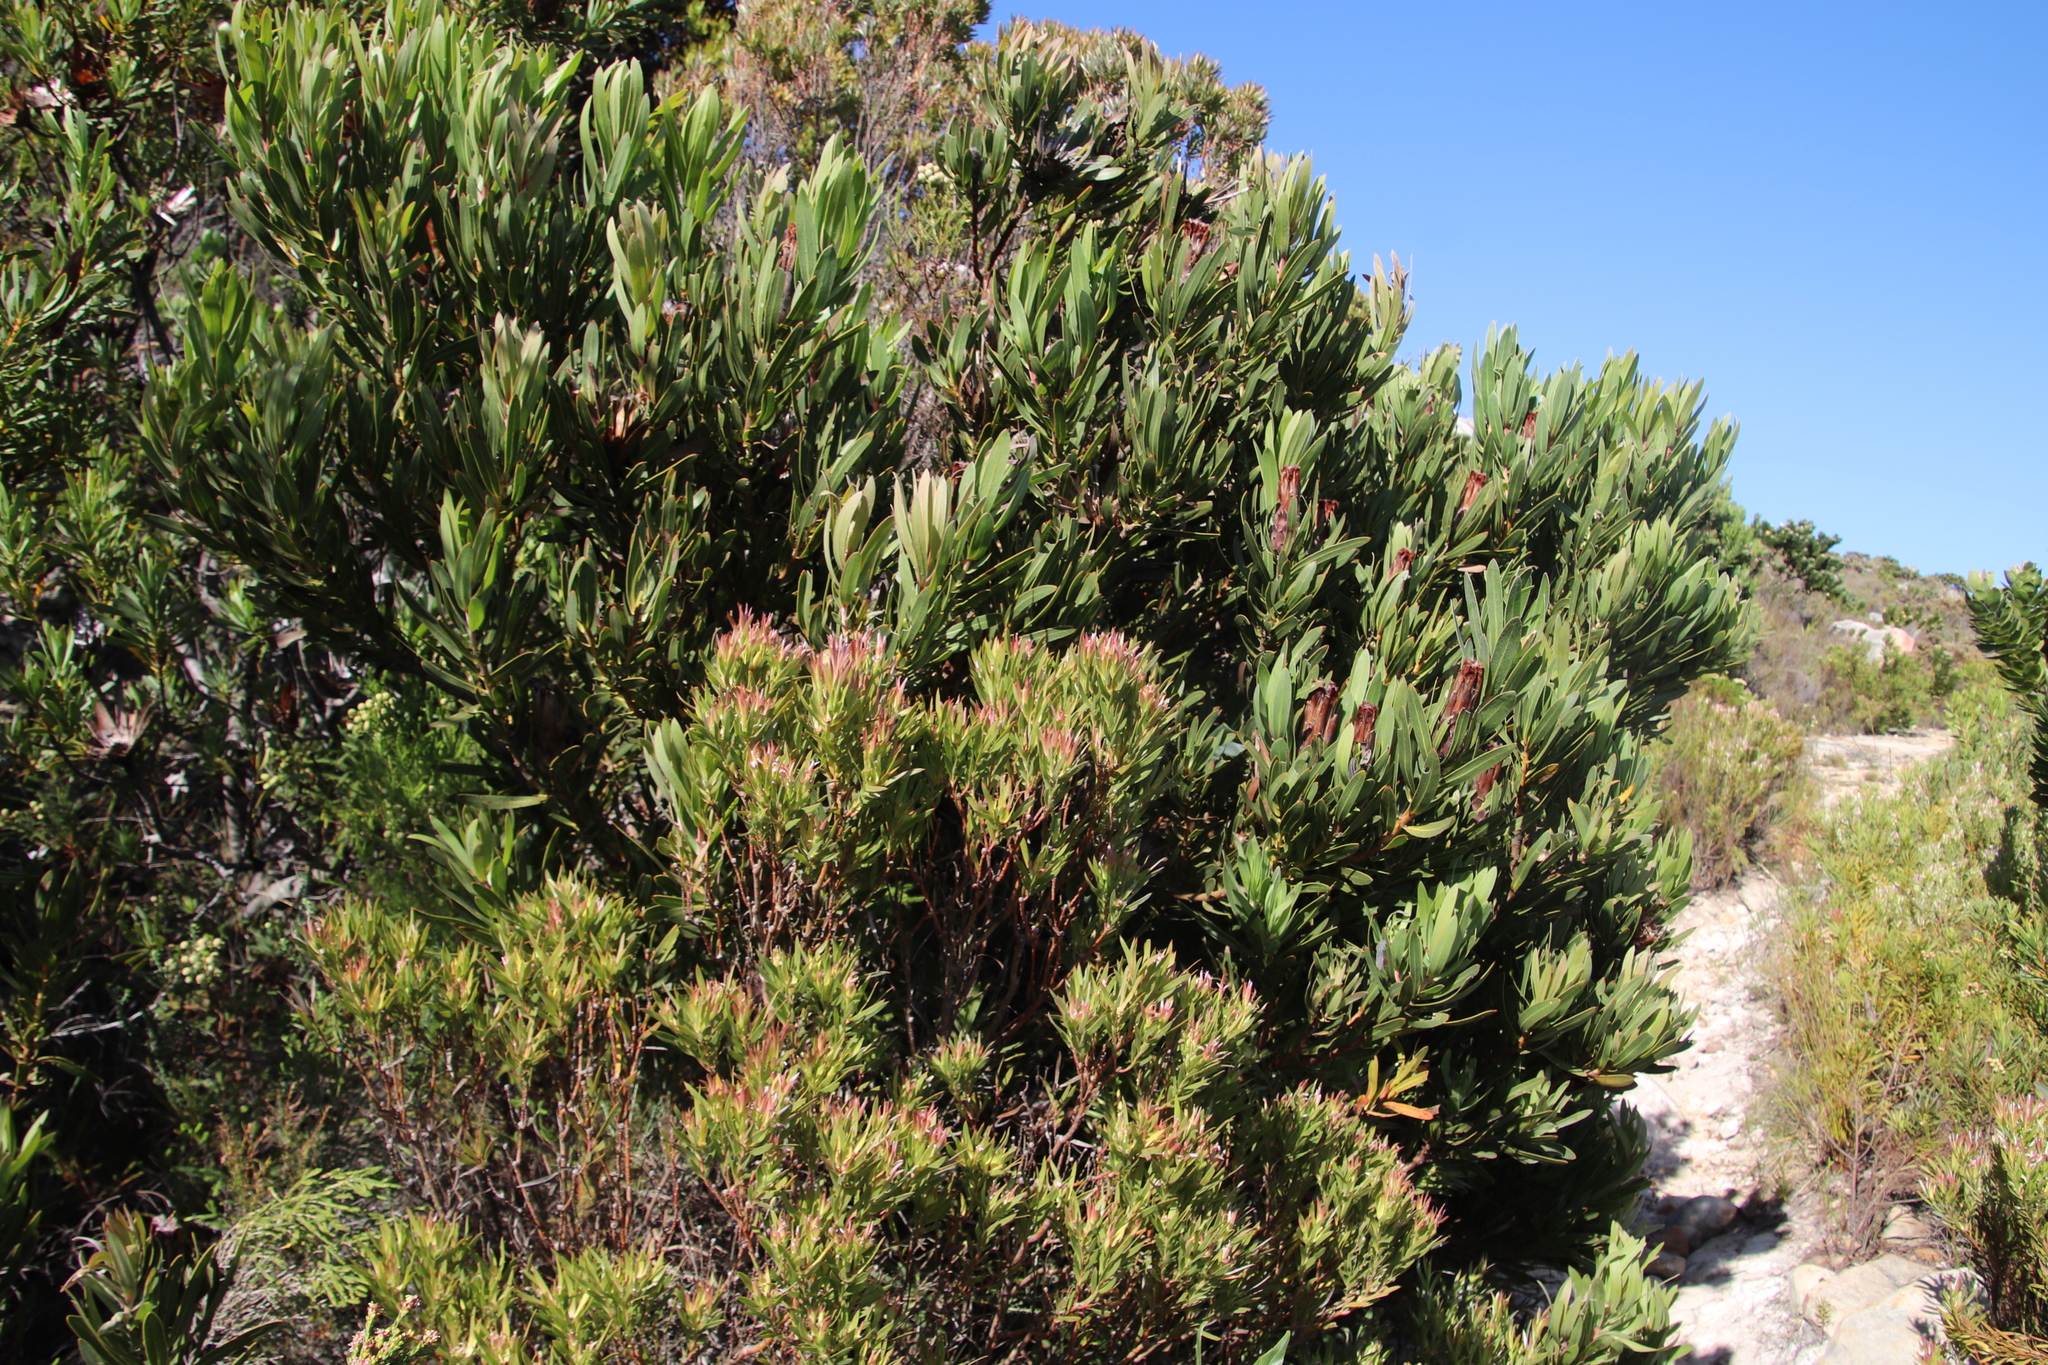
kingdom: Plantae
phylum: Tracheophyta
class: Magnoliopsida
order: Proteales
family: Proteaceae
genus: Leucadendron
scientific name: Leucadendron xanthoconus
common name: Sickle-leaf conebush
